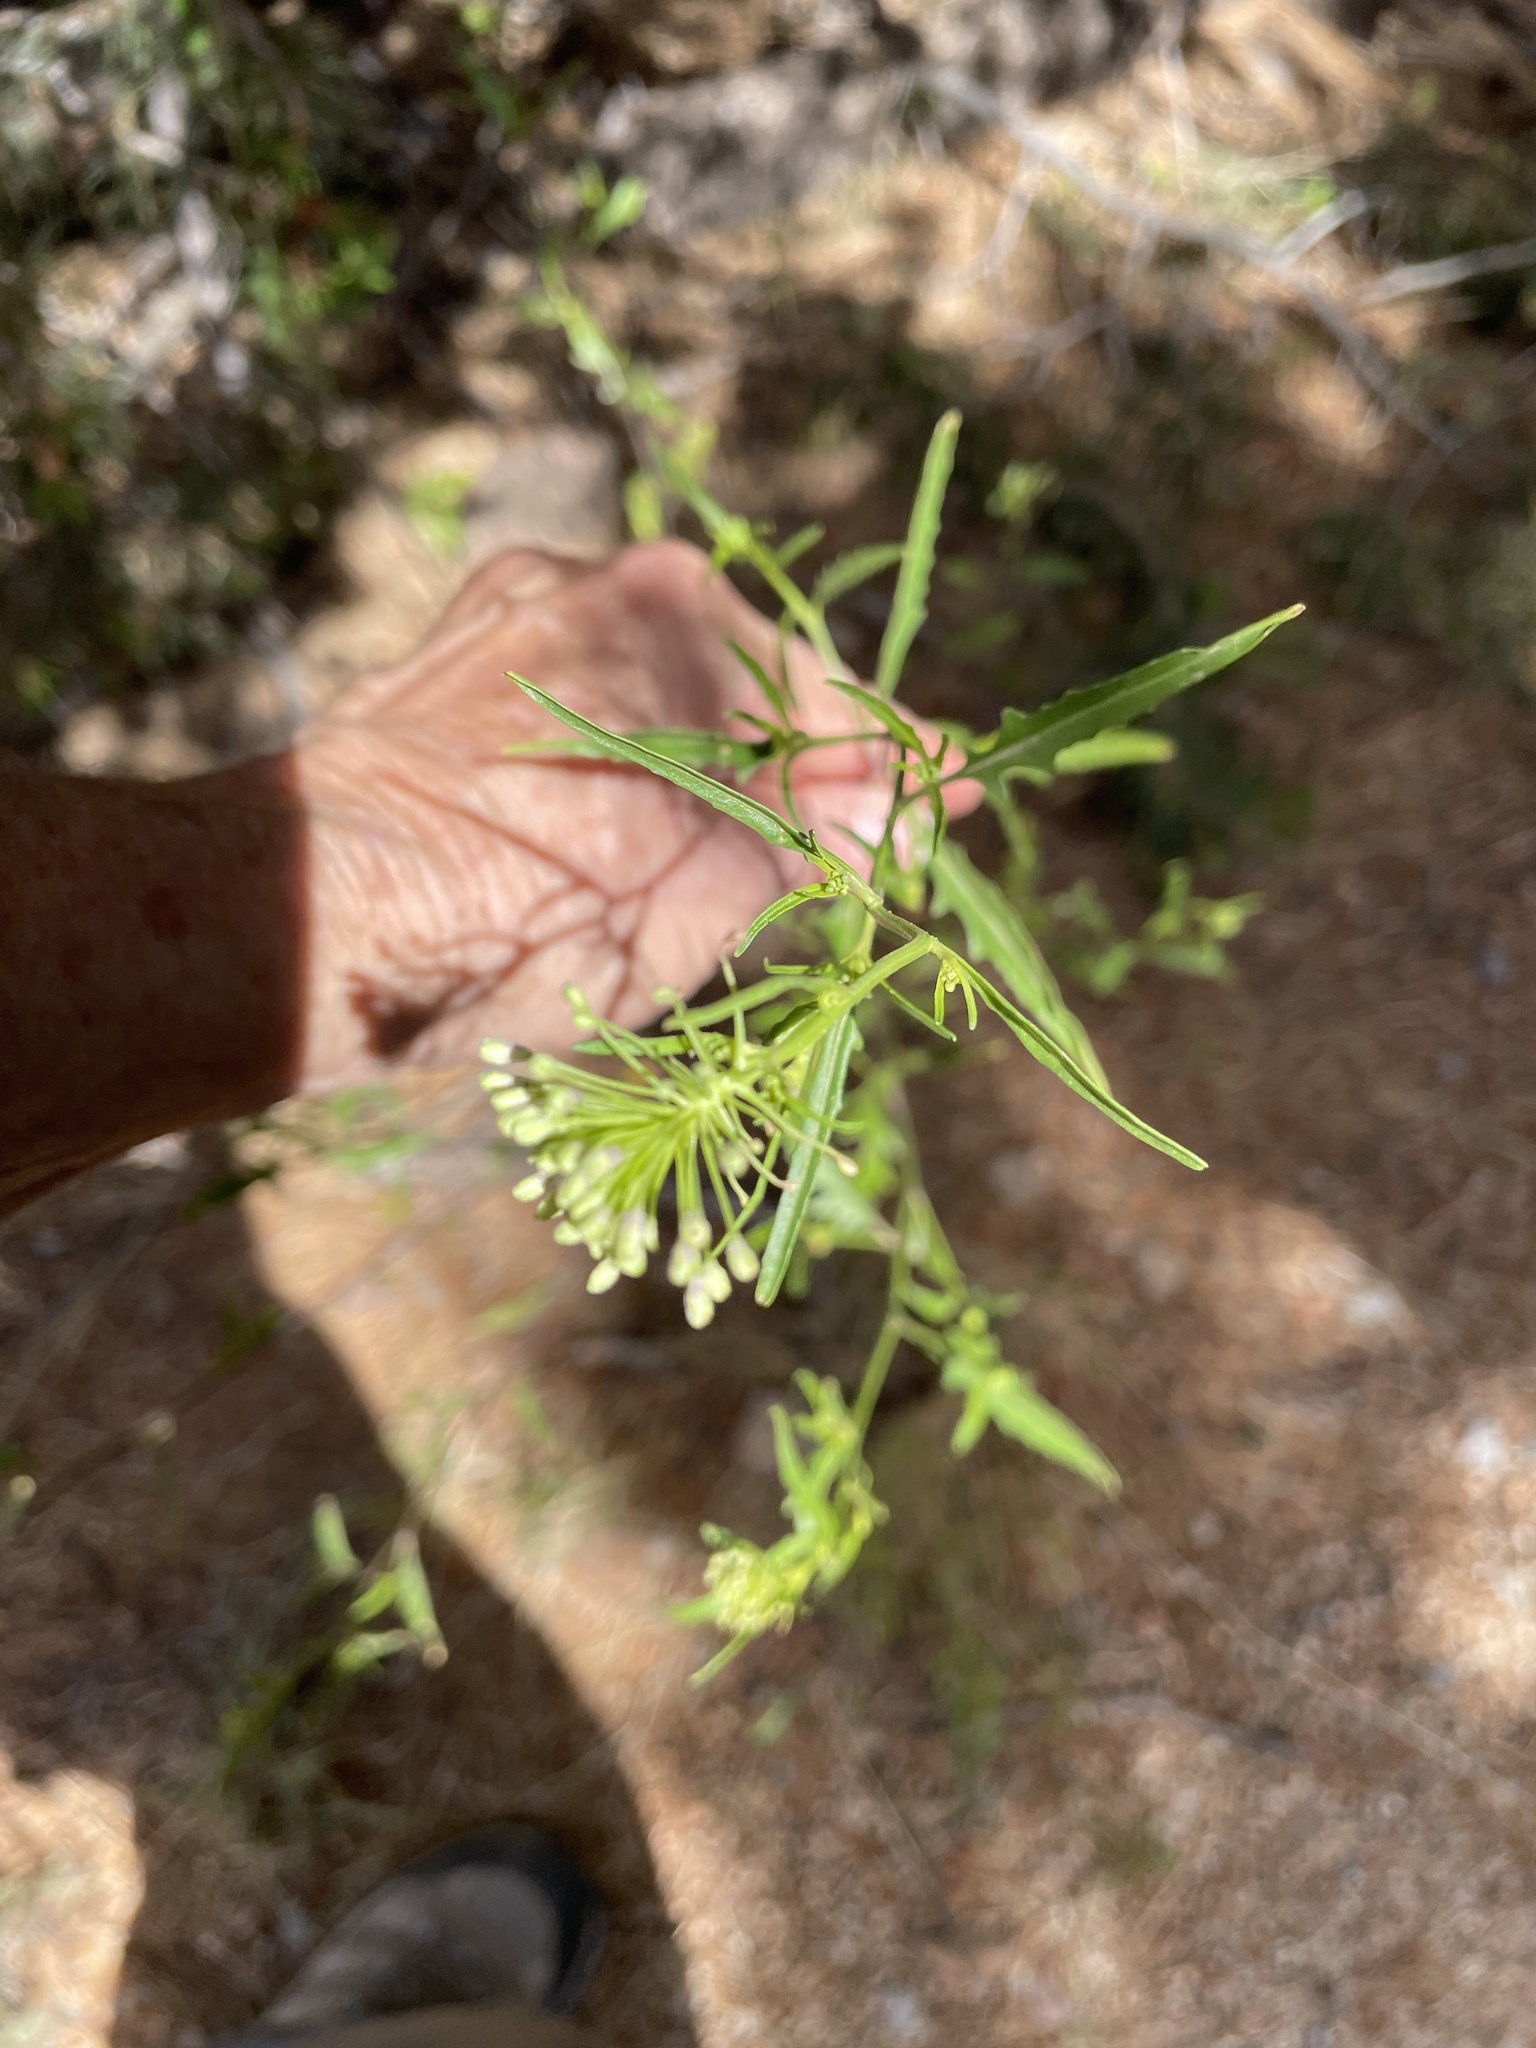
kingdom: Plantae
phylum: Tracheophyta
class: Magnoliopsida
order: Caryophyllales
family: Amaranthaceae
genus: Dysphania
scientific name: Dysphania incisa
